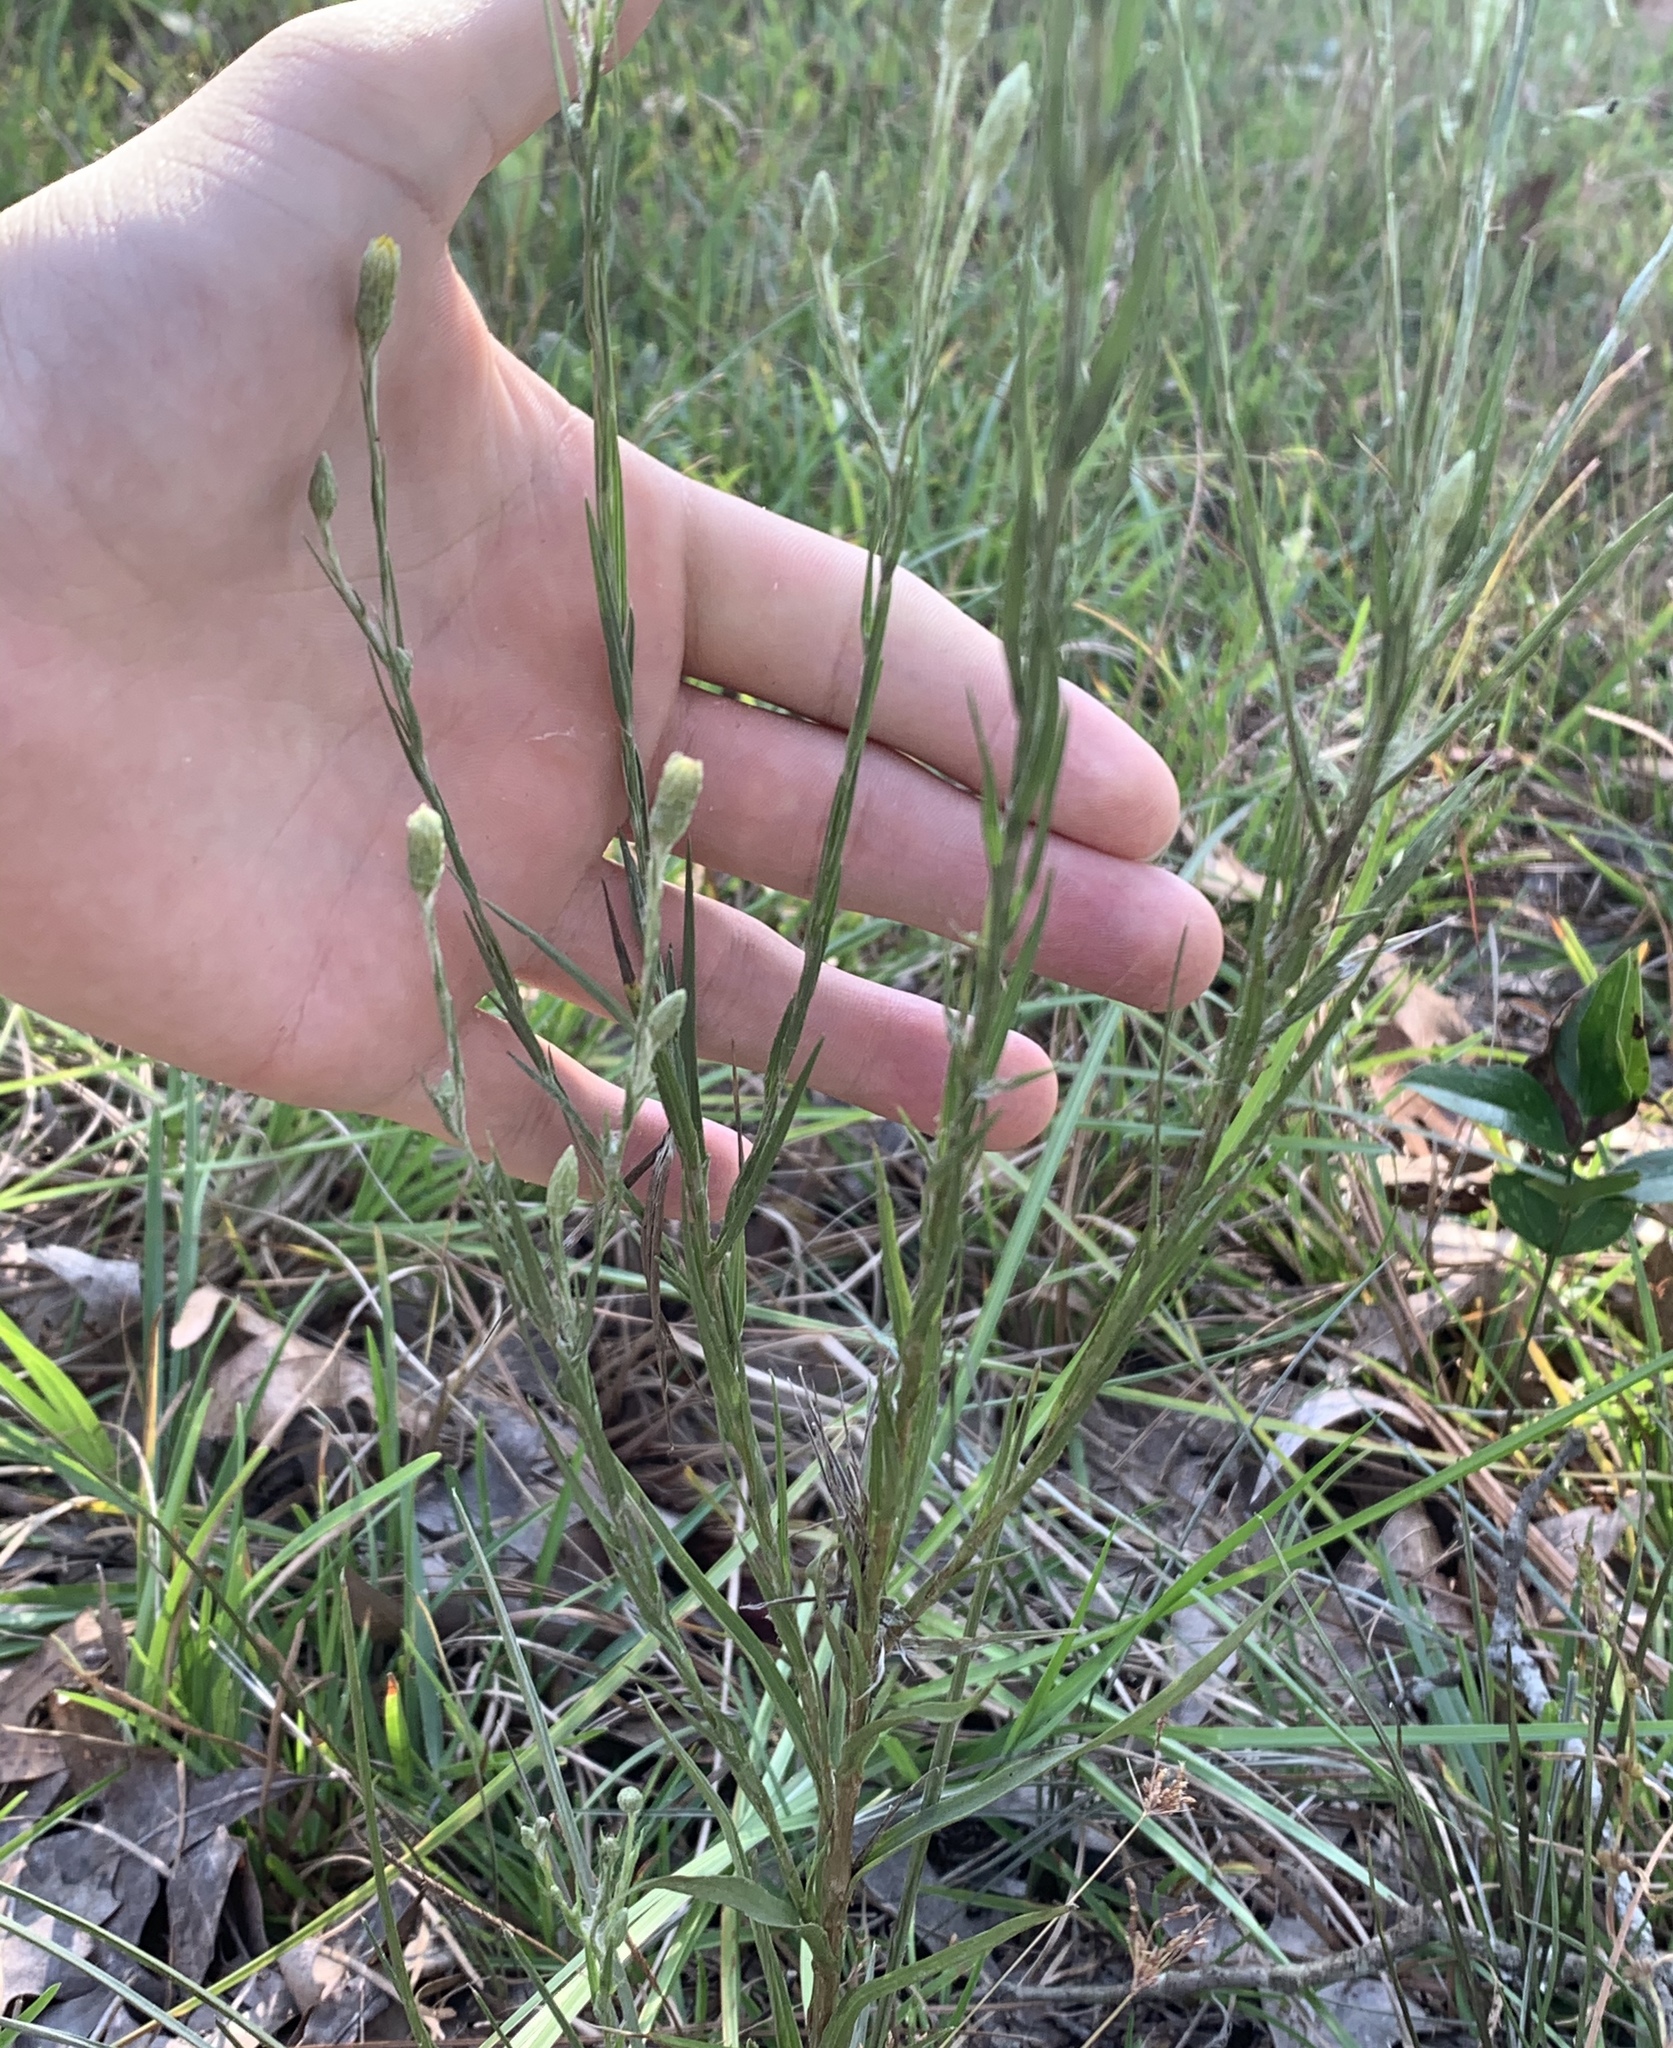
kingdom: Plantae
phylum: Tracheophyta
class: Magnoliopsida
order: Asterales
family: Asteraceae
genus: Pityopsis
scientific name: Pityopsis graminifolia
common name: Grass-leaf golden-aster
